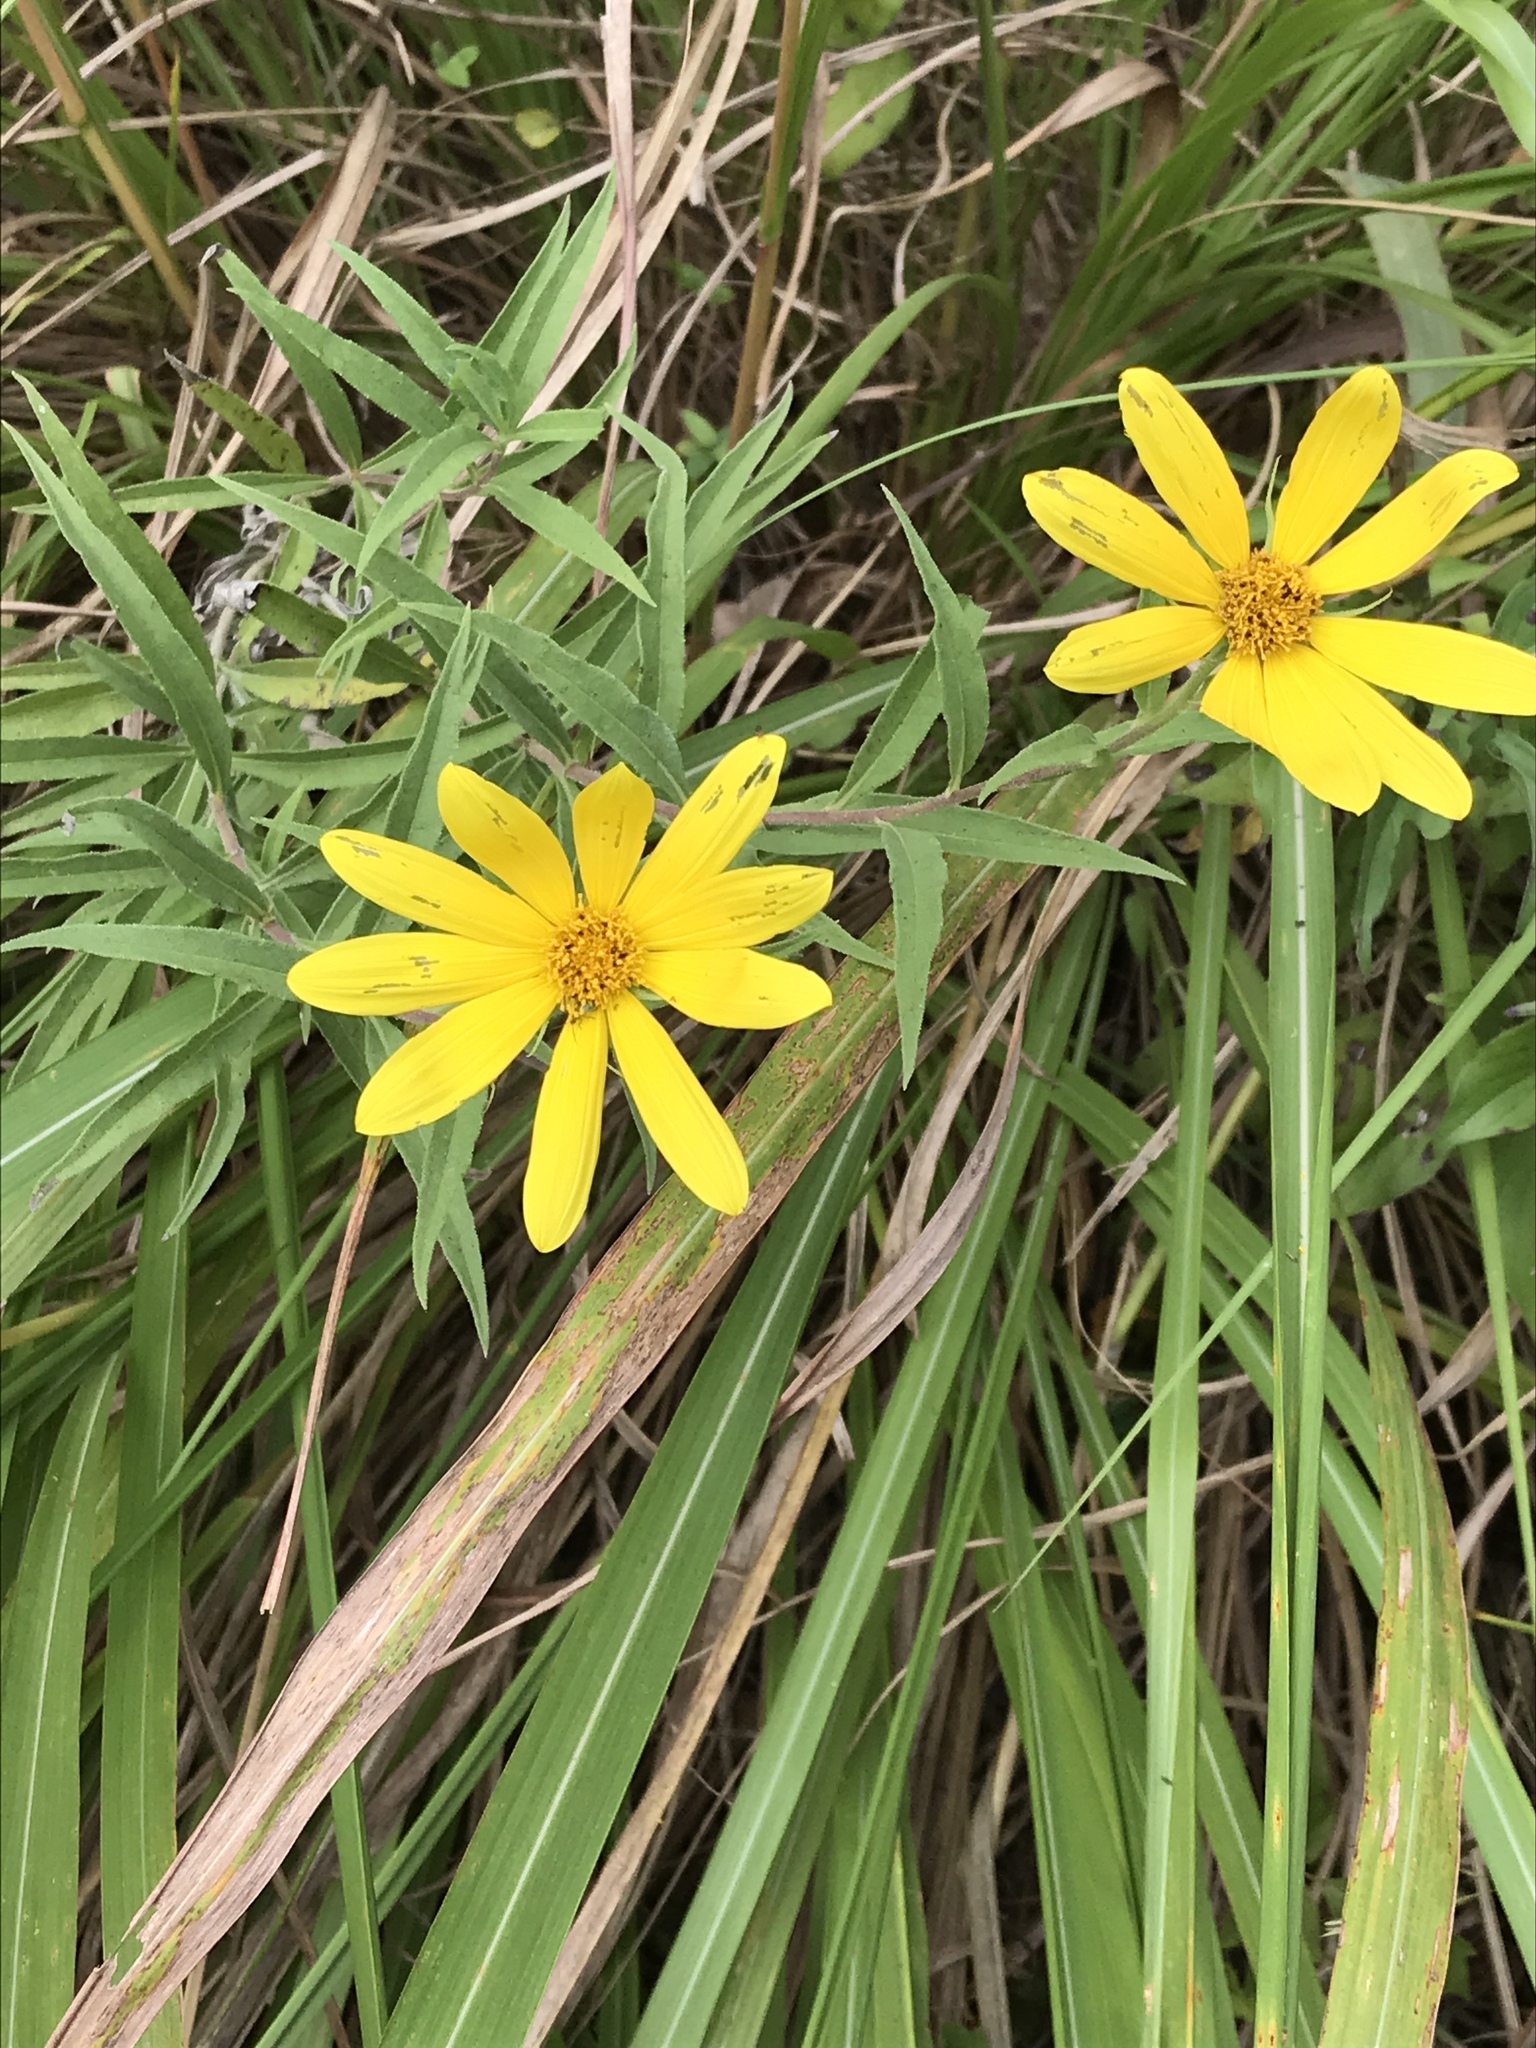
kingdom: Plantae
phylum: Tracheophyta
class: Magnoliopsida
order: Asterales
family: Asteraceae
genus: Helianthus
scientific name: Helianthus maximiliani
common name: Maximilian's sunflower
